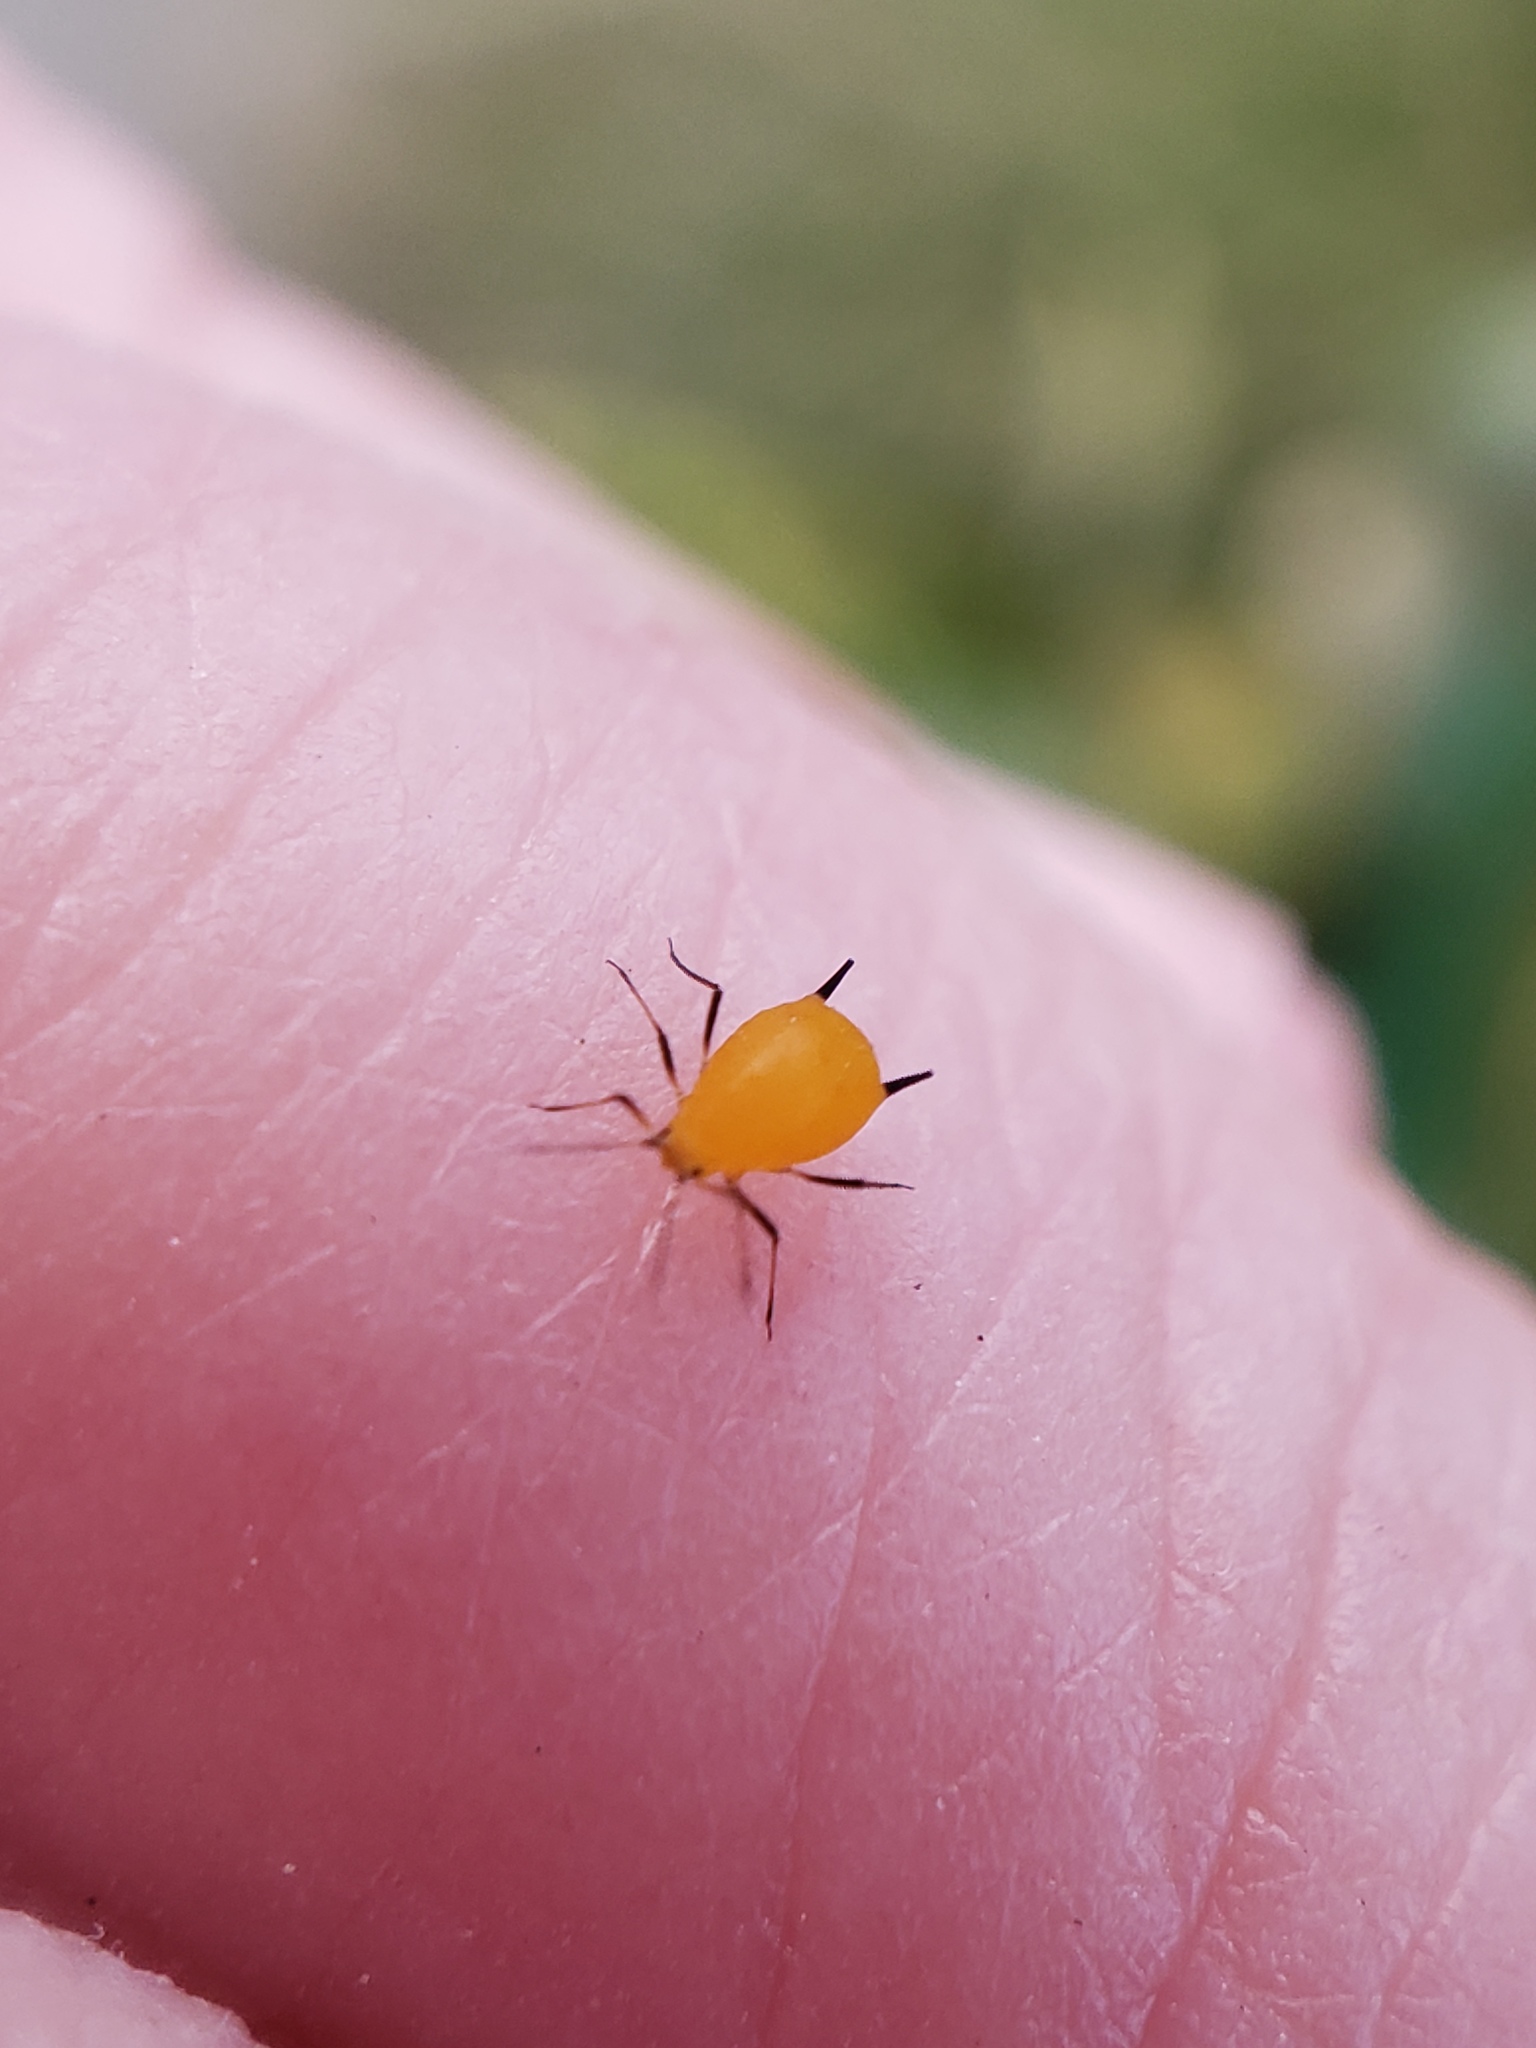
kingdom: Animalia
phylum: Arthropoda
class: Insecta
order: Hemiptera
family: Aphididae
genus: Aphis
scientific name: Aphis nerii
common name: Oleander aphid
